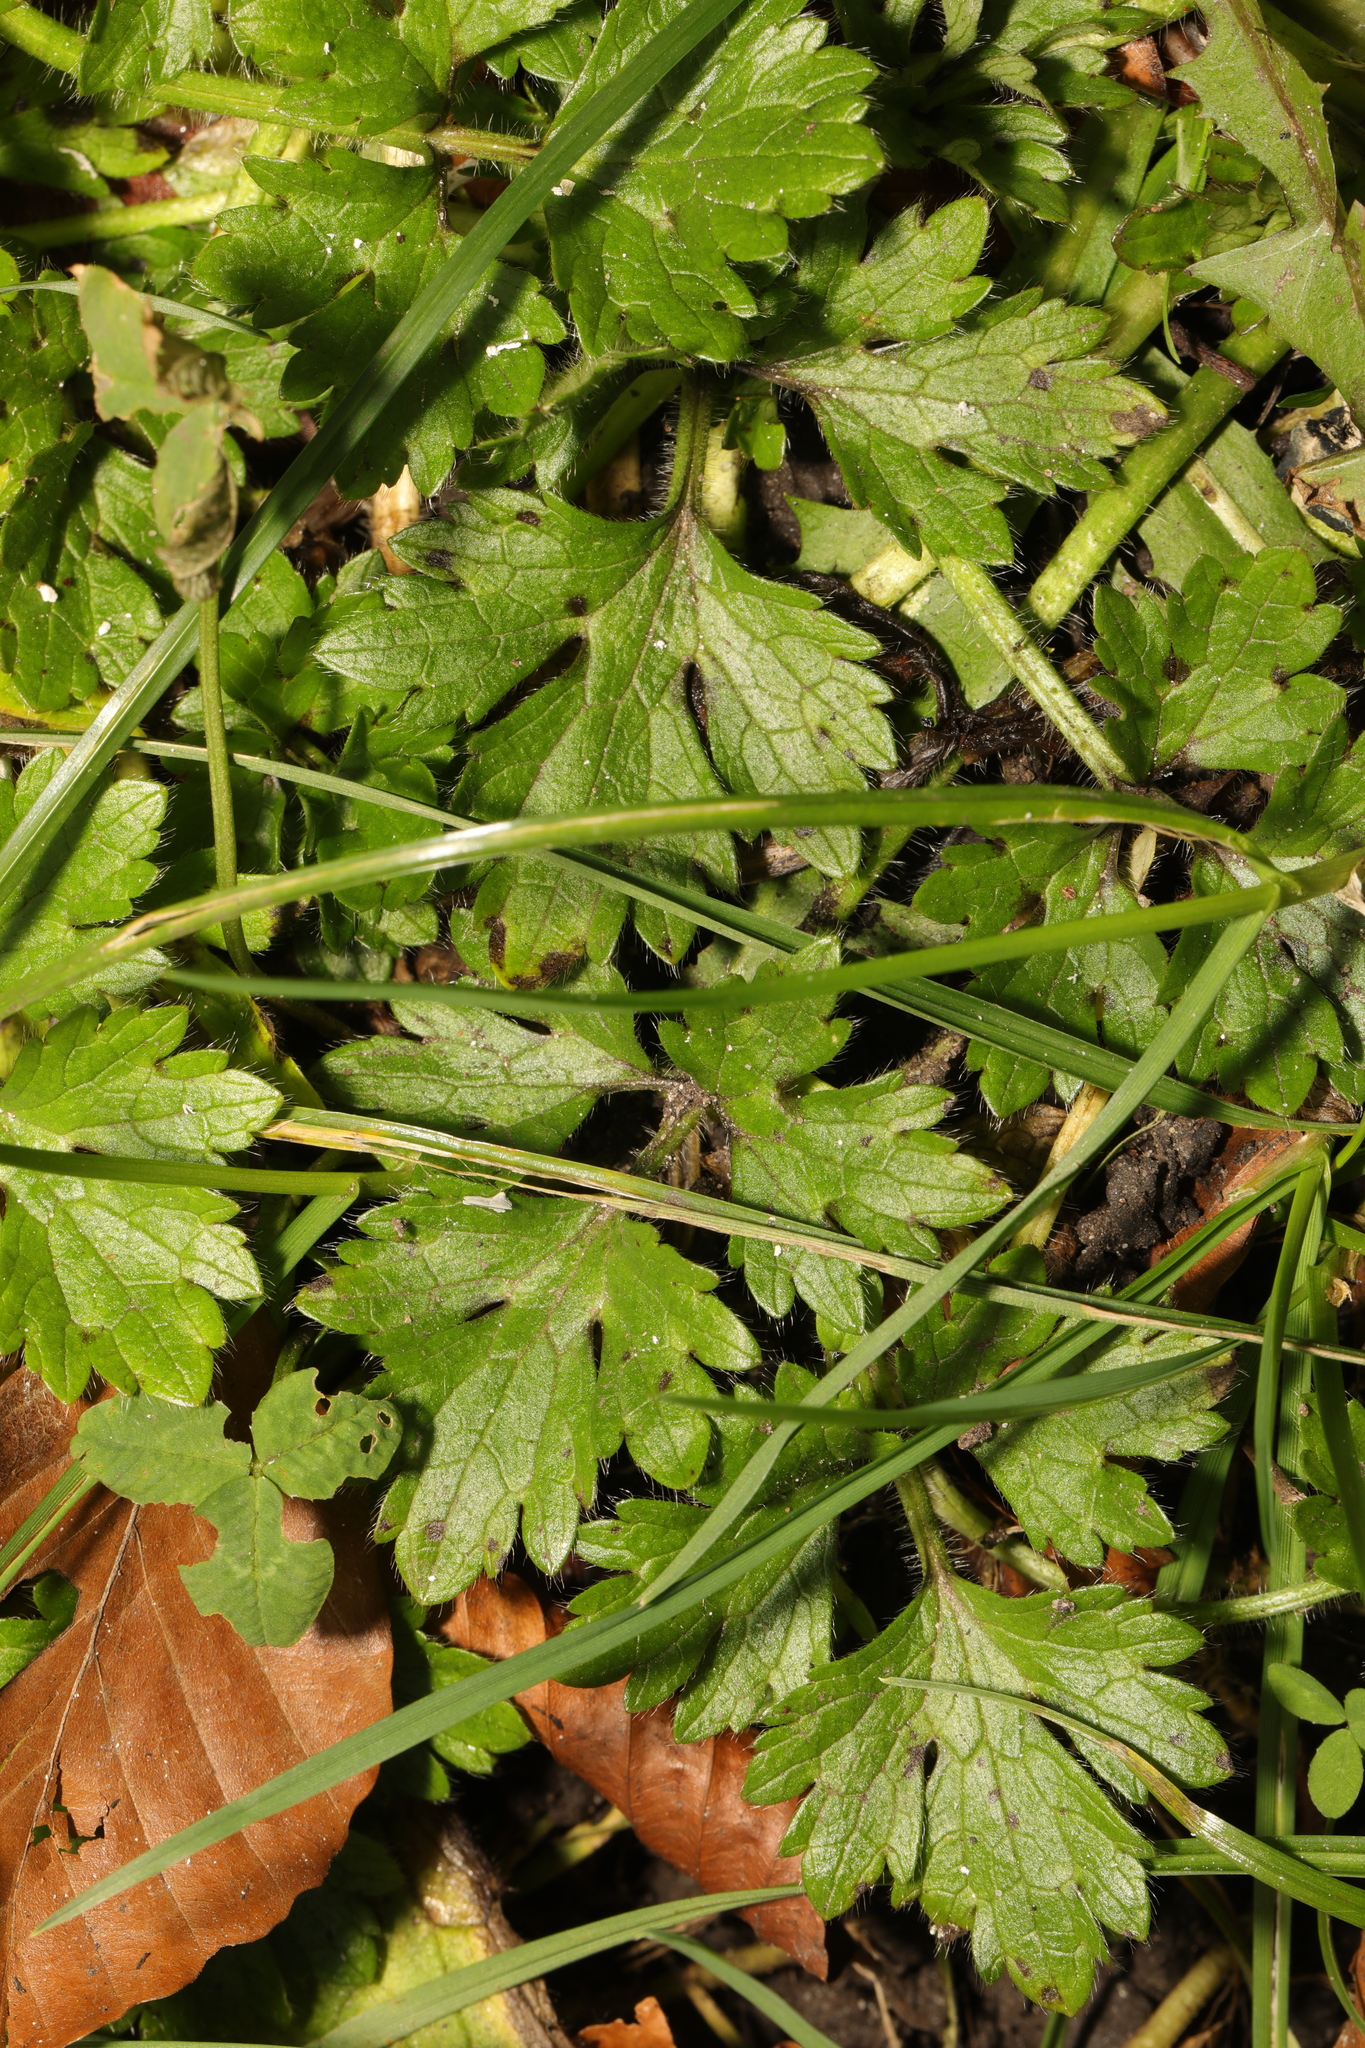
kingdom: Plantae
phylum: Tracheophyta
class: Magnoliopsida
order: Ranunculales
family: Ranunculaceae
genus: Ranunculus
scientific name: Ranunculus repens
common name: Creeping buttercup
